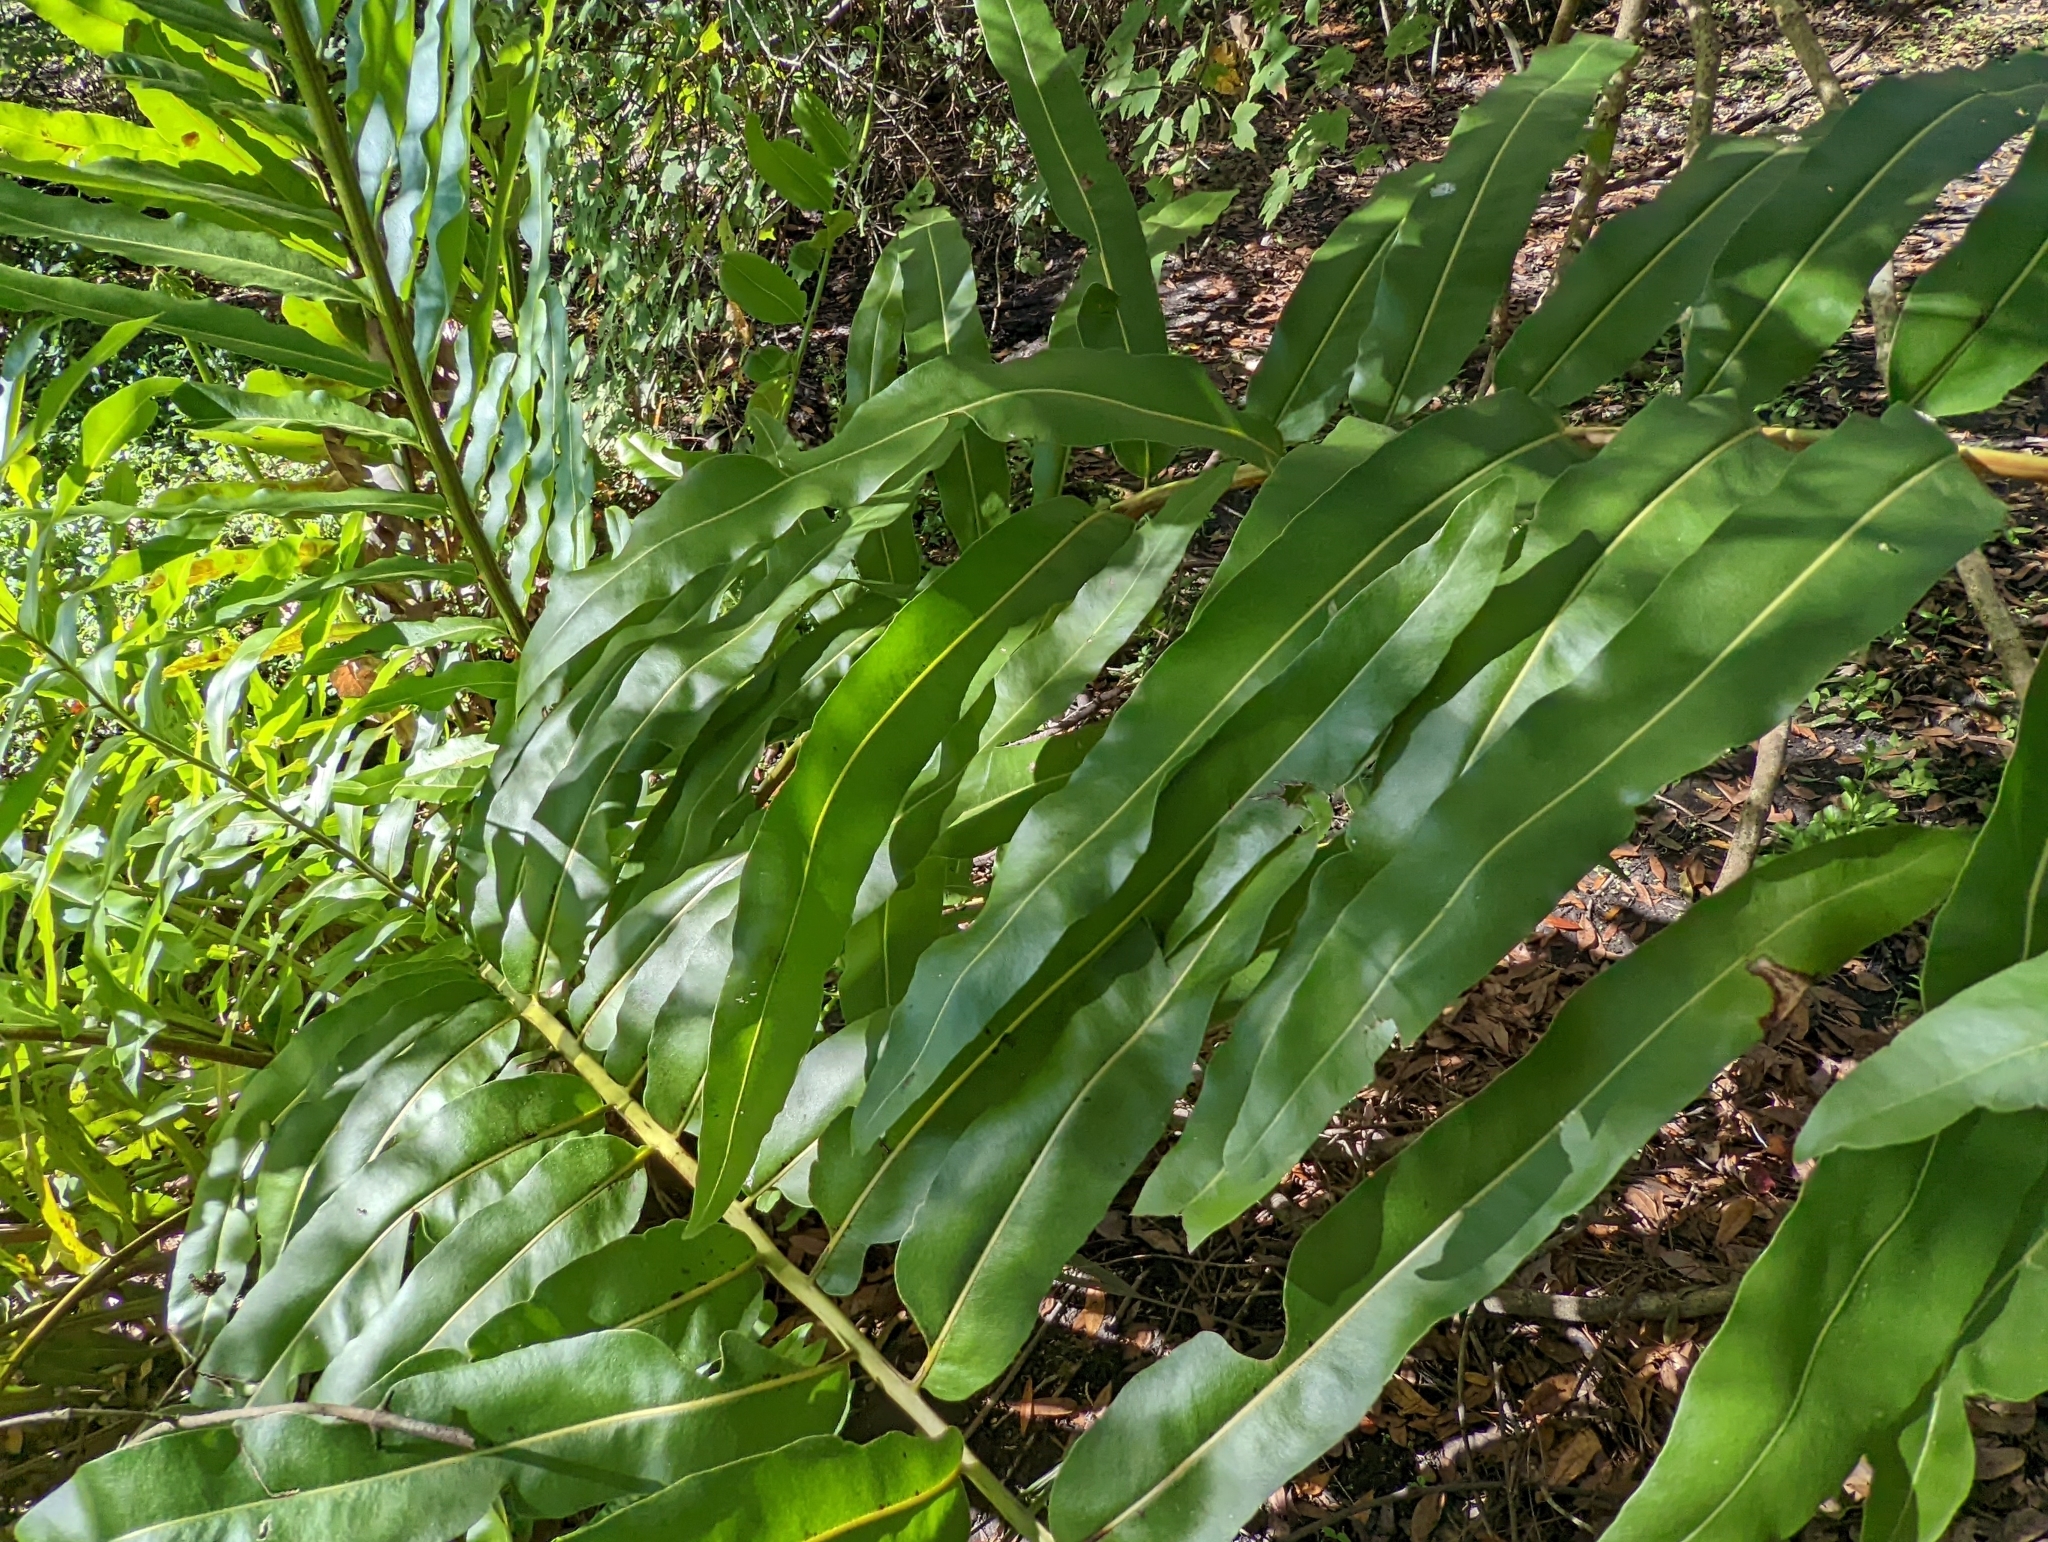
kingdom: Plantae
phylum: Tracheophyta
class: Polypodiopsida
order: Polypodiales
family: Pteridaceae
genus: Acrostichum
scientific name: Acrostichum danaeifolium
